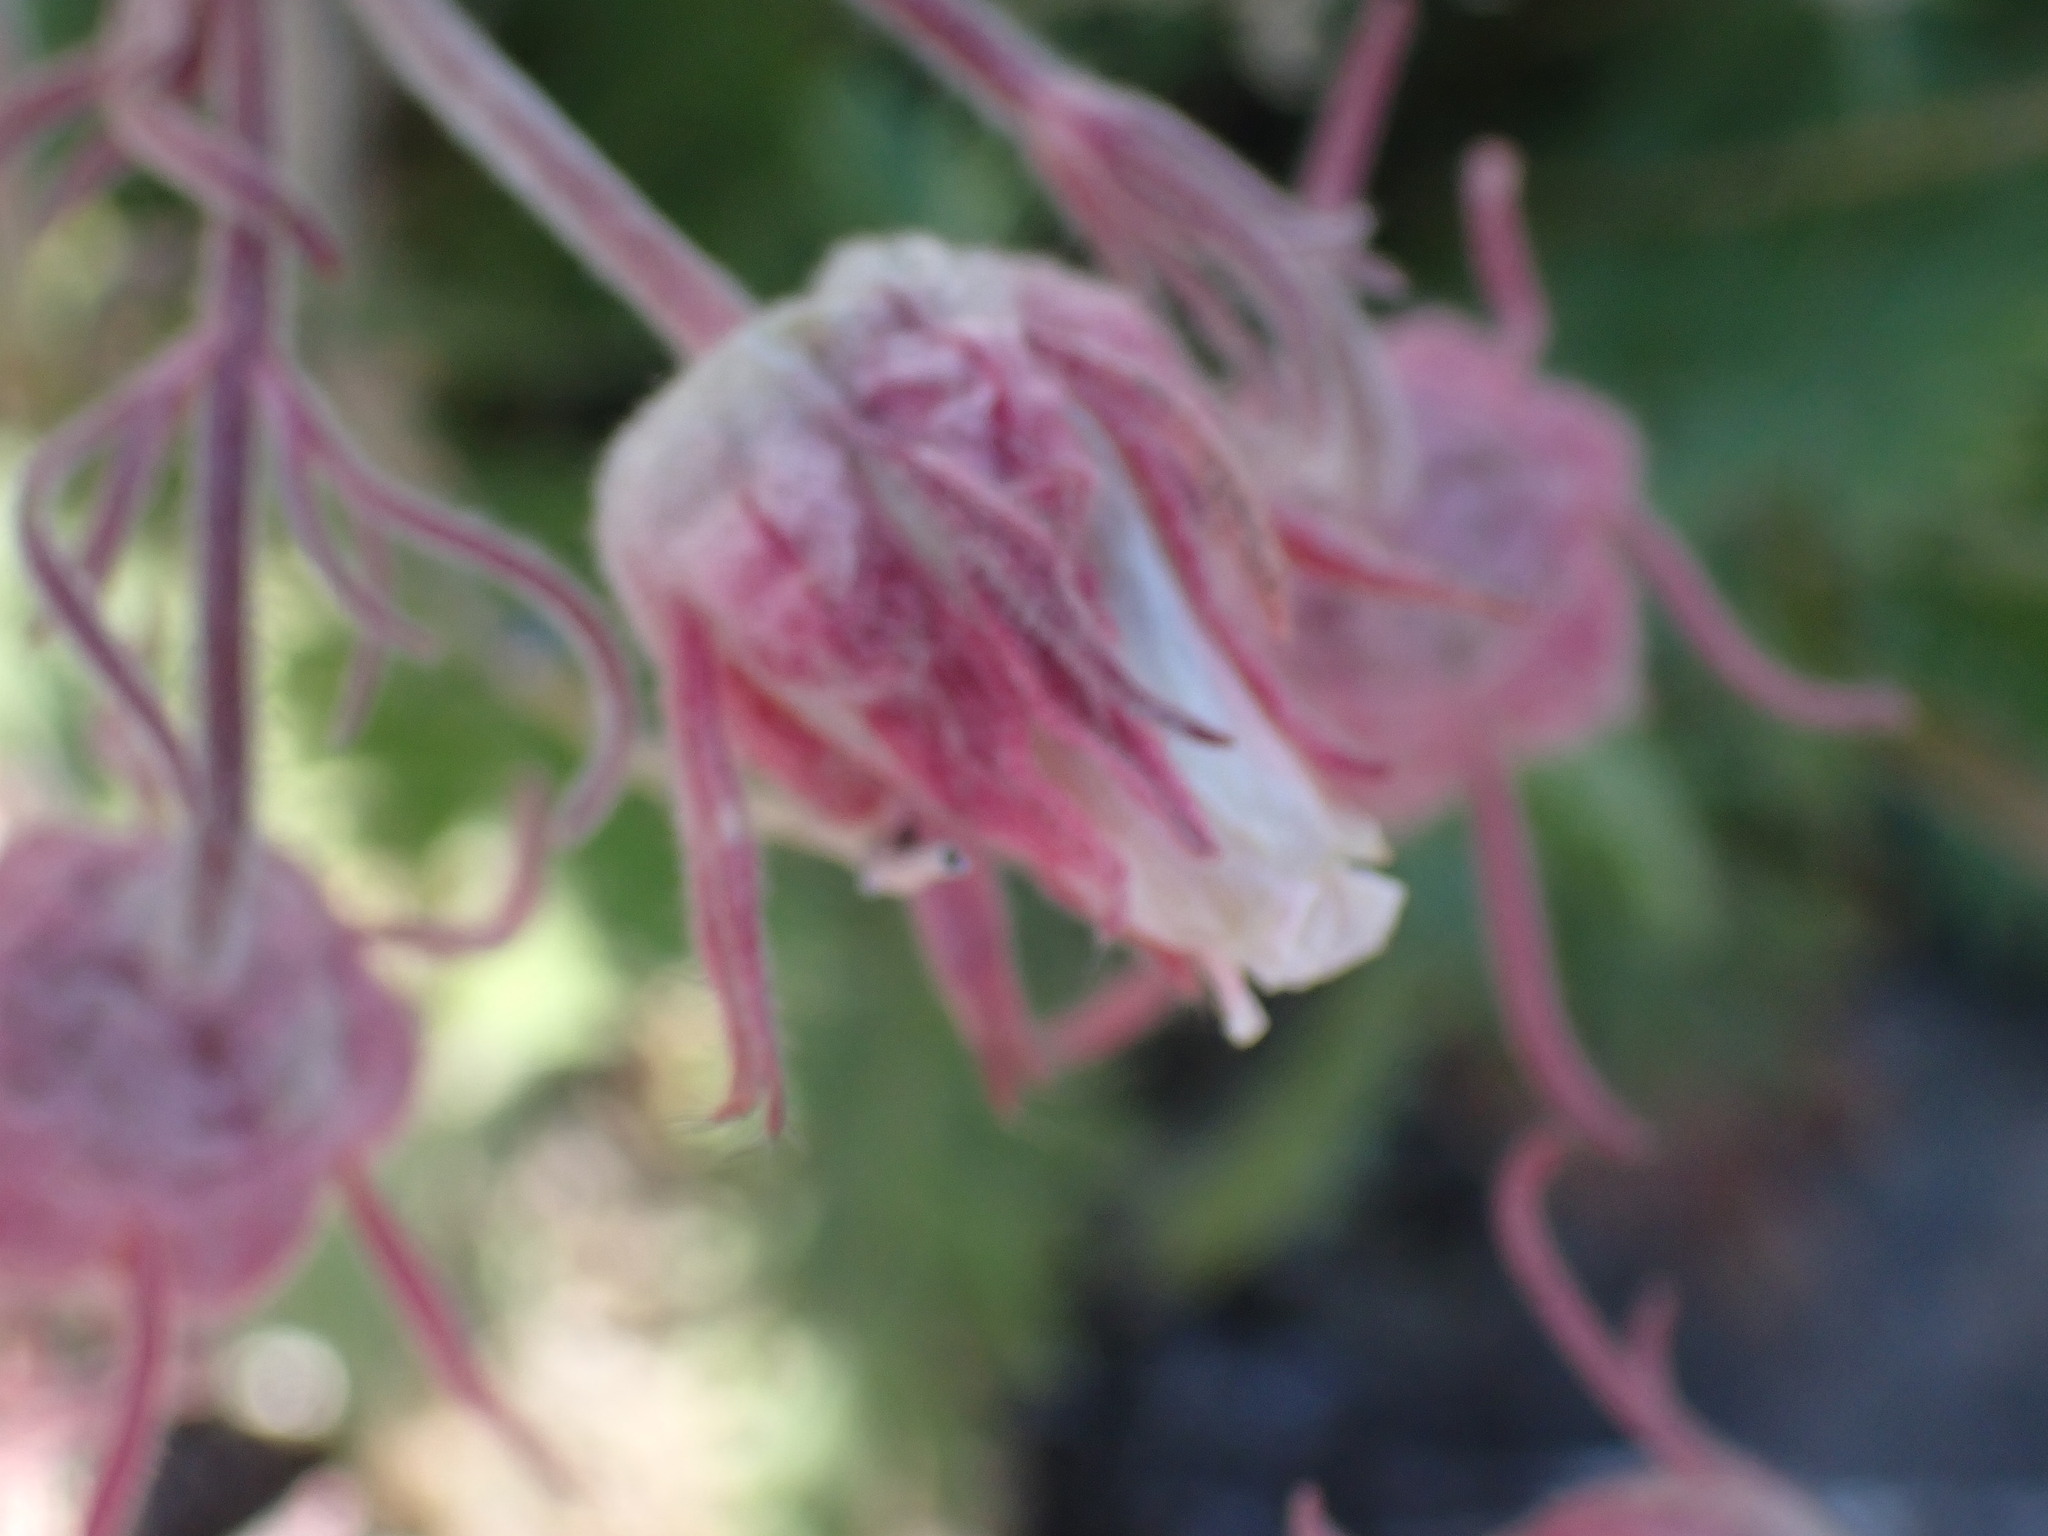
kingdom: Plantae
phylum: Tracheophyta
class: Magnoliopsida
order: Rosales
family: Rosaceae
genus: Geum
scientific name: Geum triflorum
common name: Old man's whiskers
